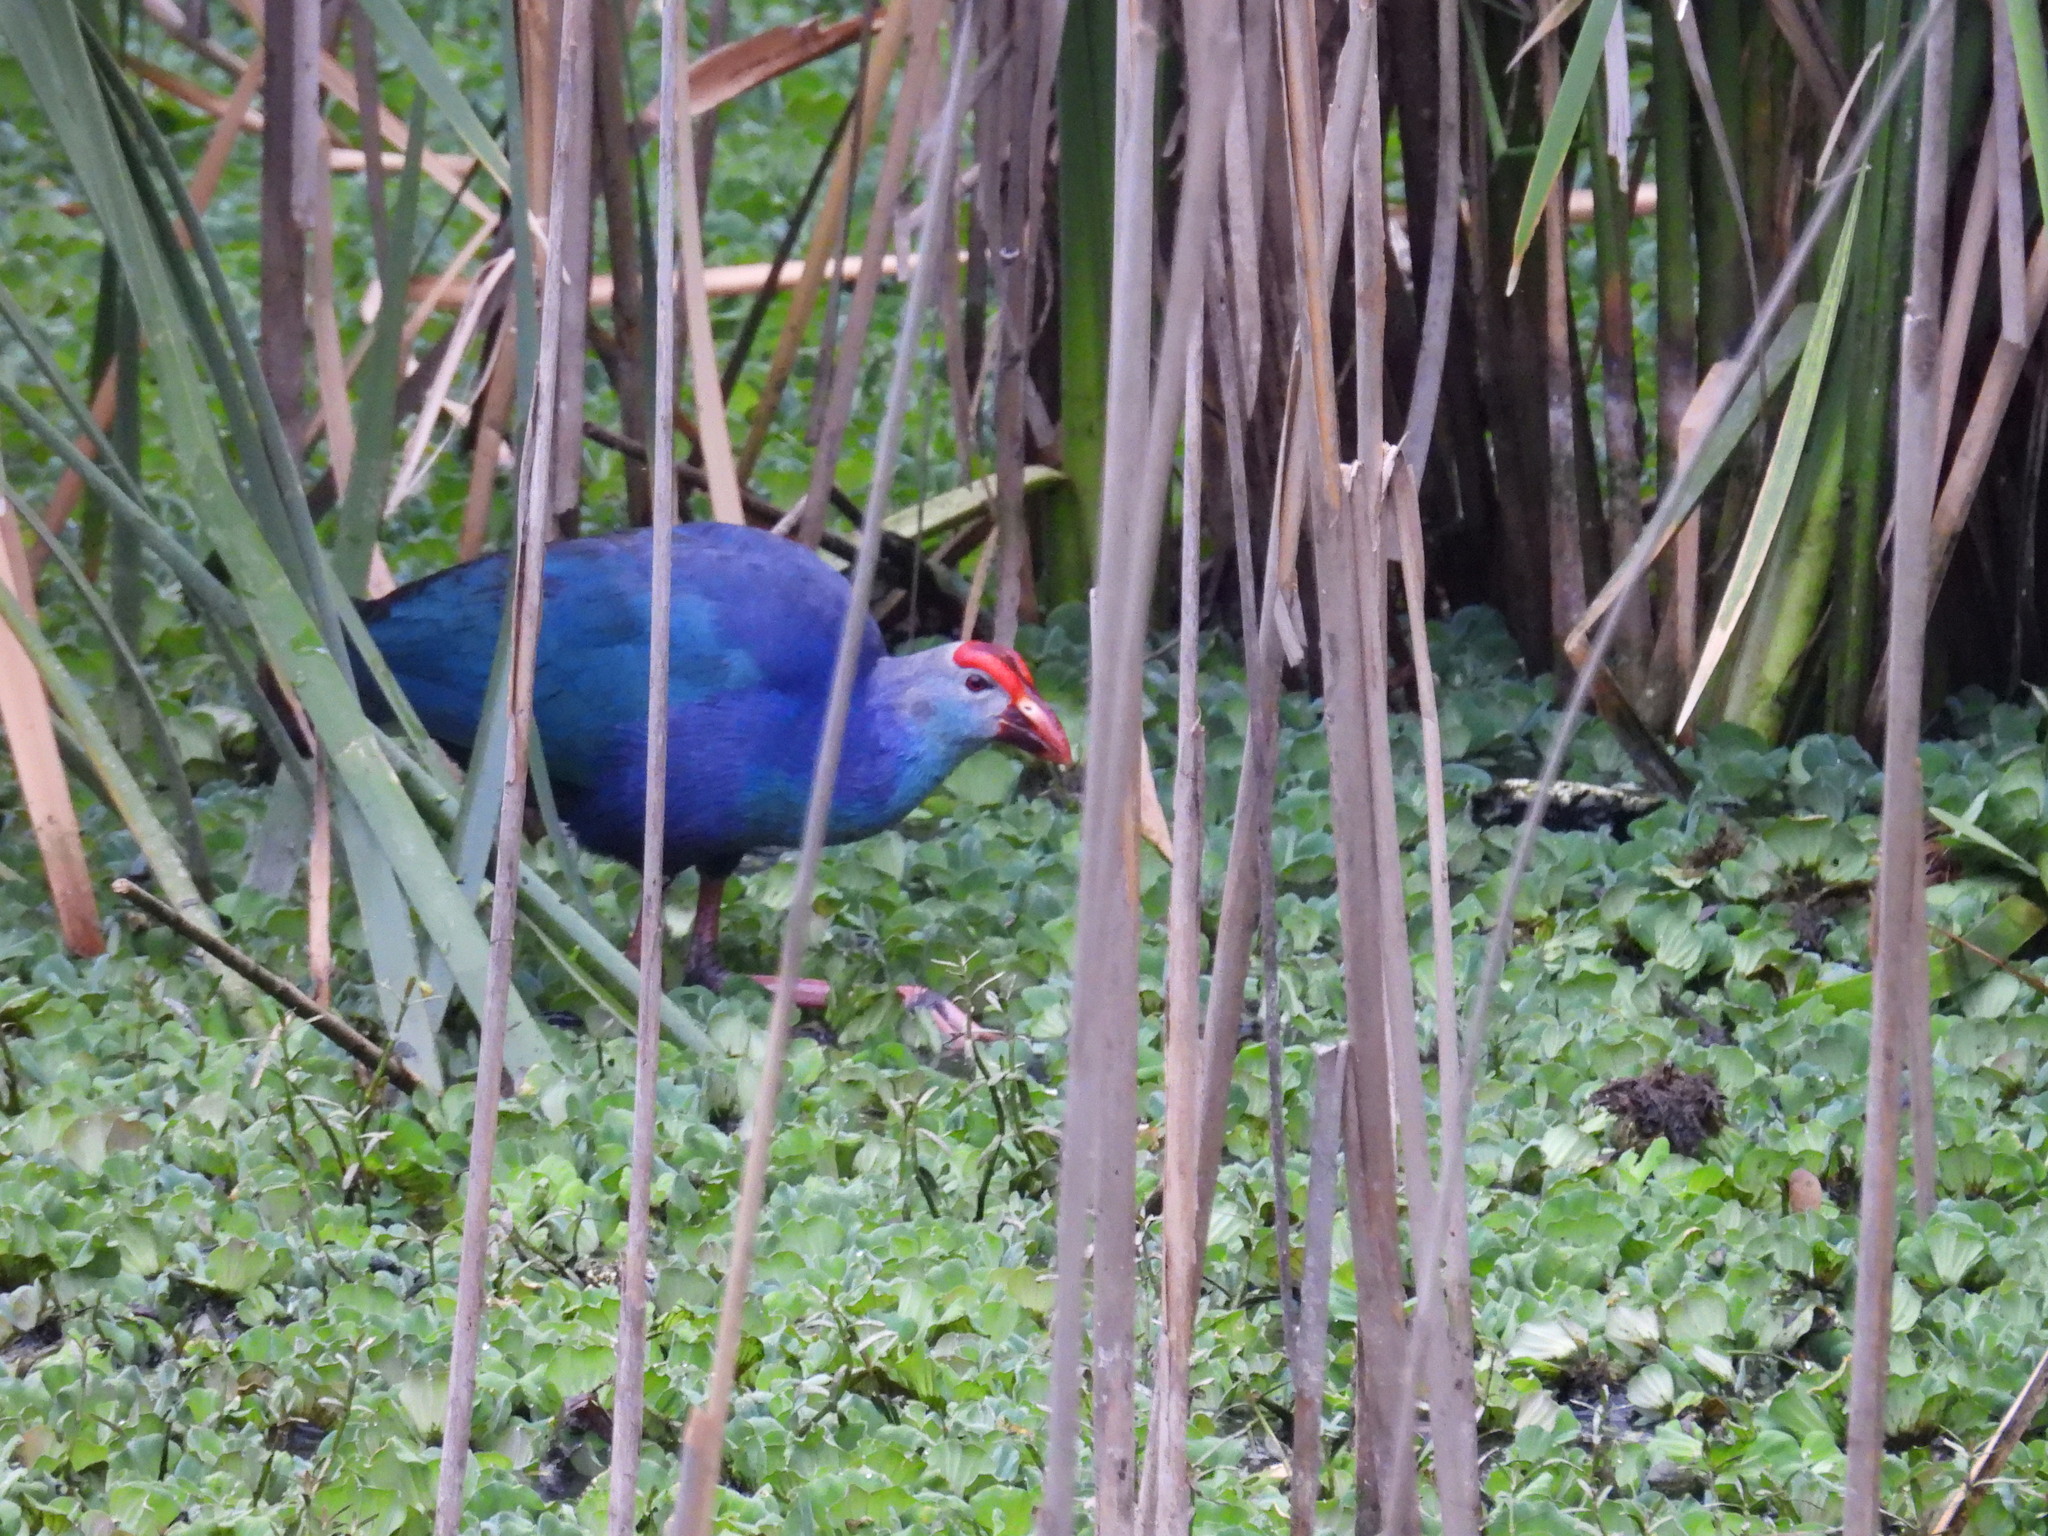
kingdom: Animalia
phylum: Chordata
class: Aves
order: Gruiformes
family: Rallidae
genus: Porphyrio
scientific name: Porphyrio porphyrio
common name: Purple swamphen
